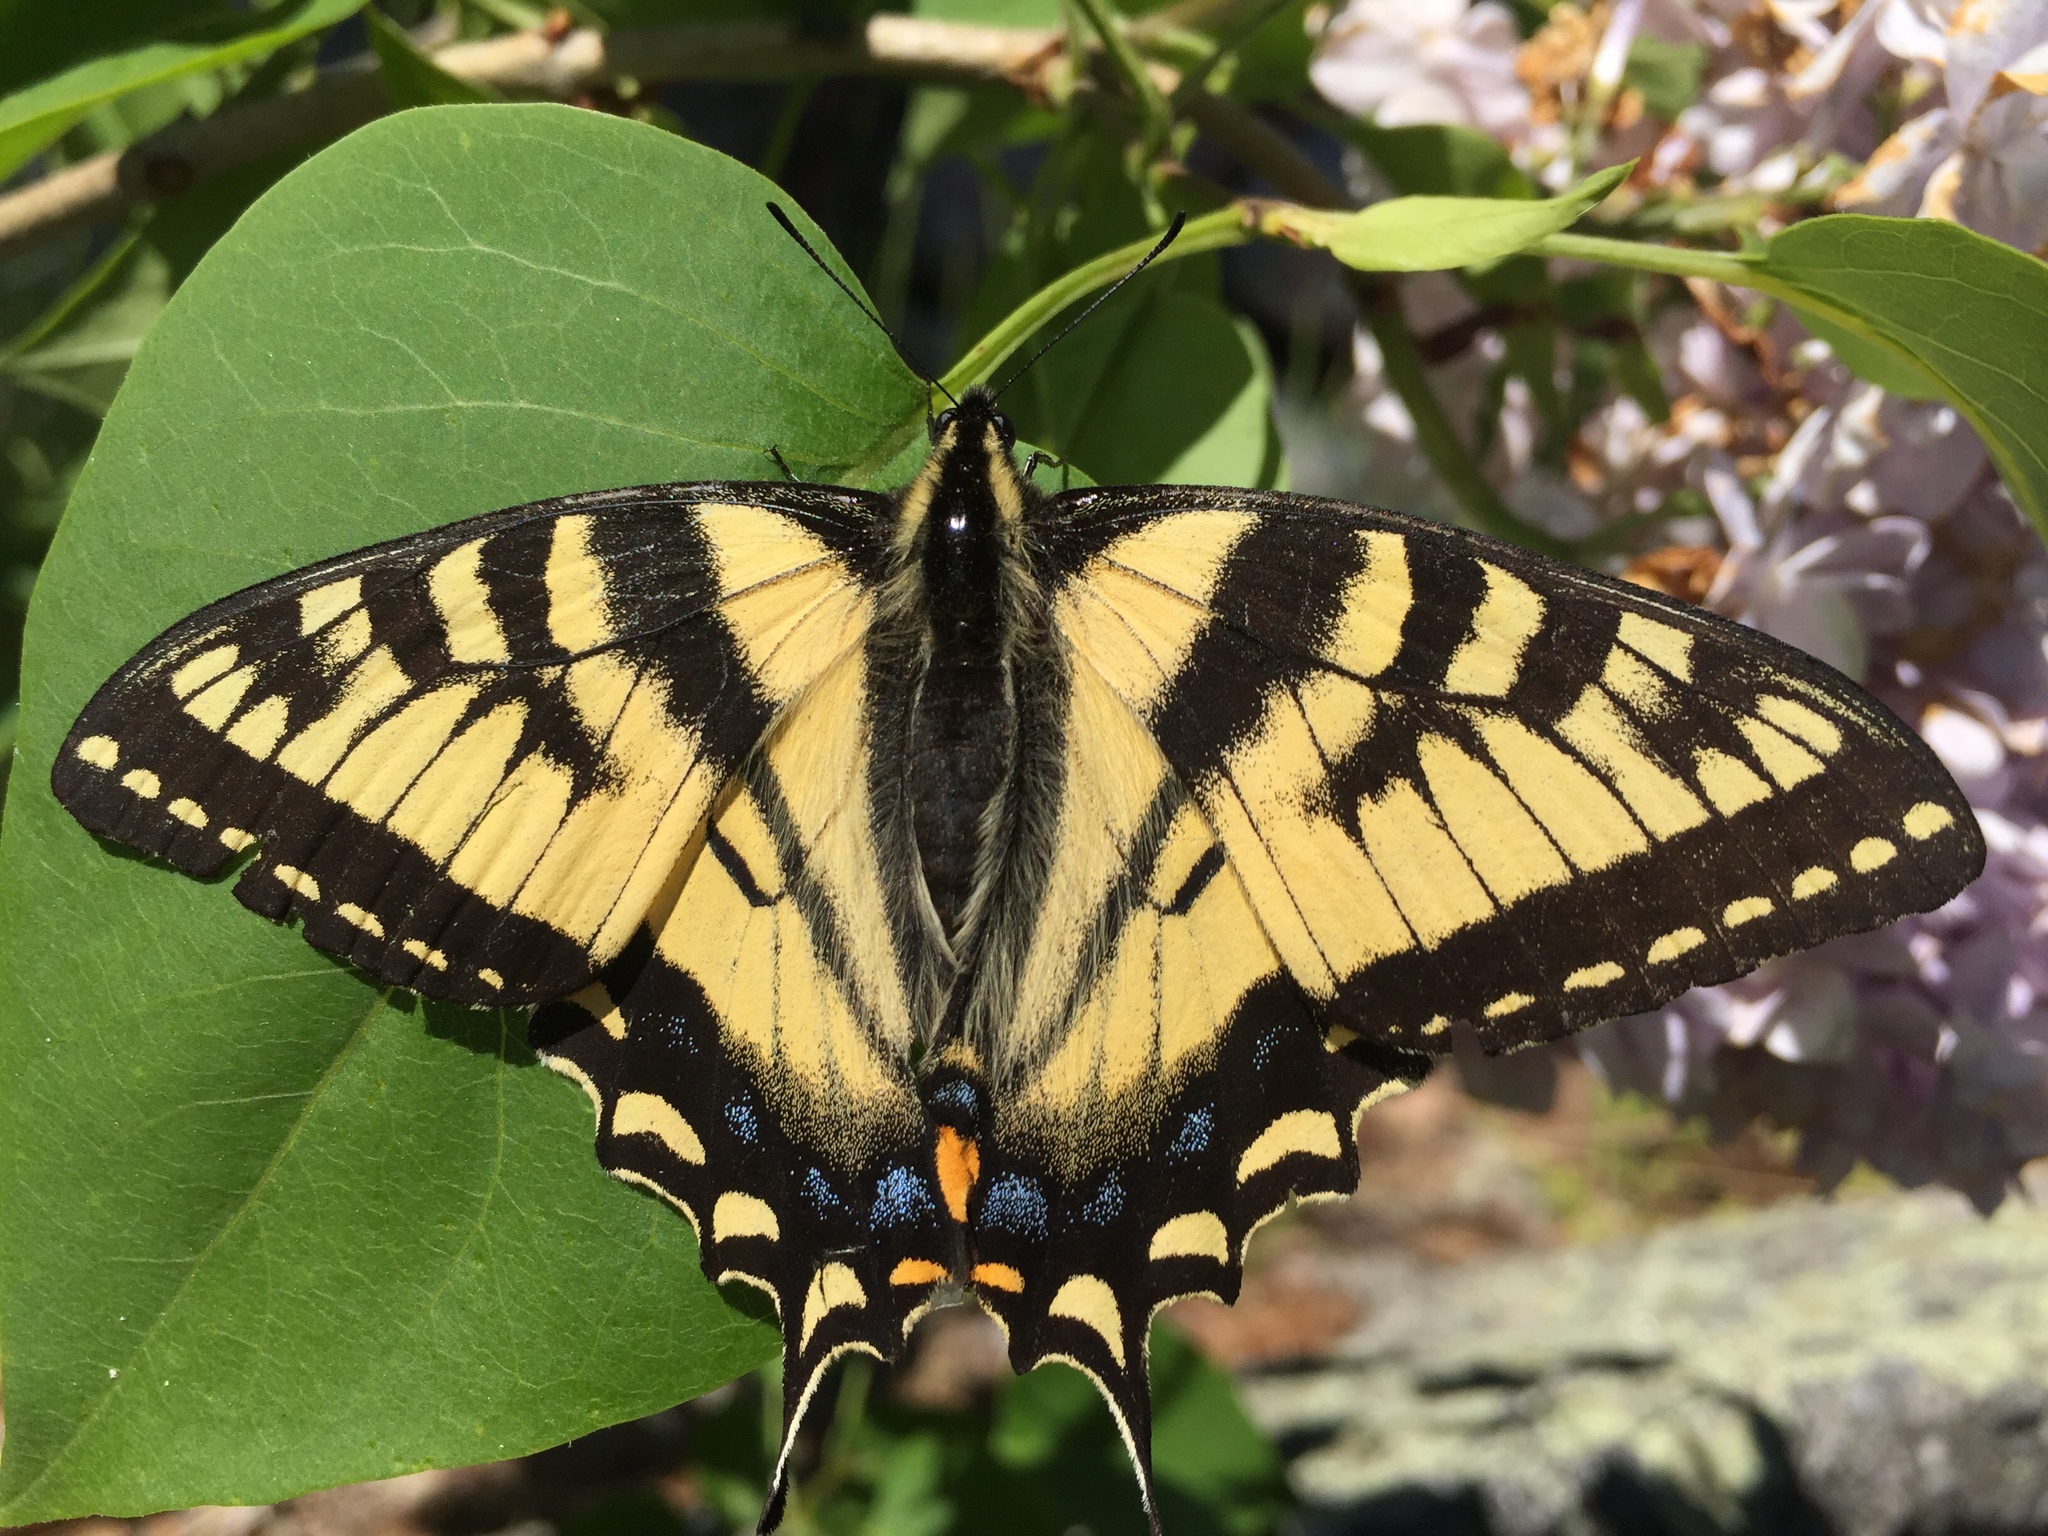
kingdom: Animalia
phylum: Arthropoda
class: Insecta
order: Lepidoptera
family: Papilionidae
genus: Papilio
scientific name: Papilio canadensis
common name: Canadian tiger swallowtail
